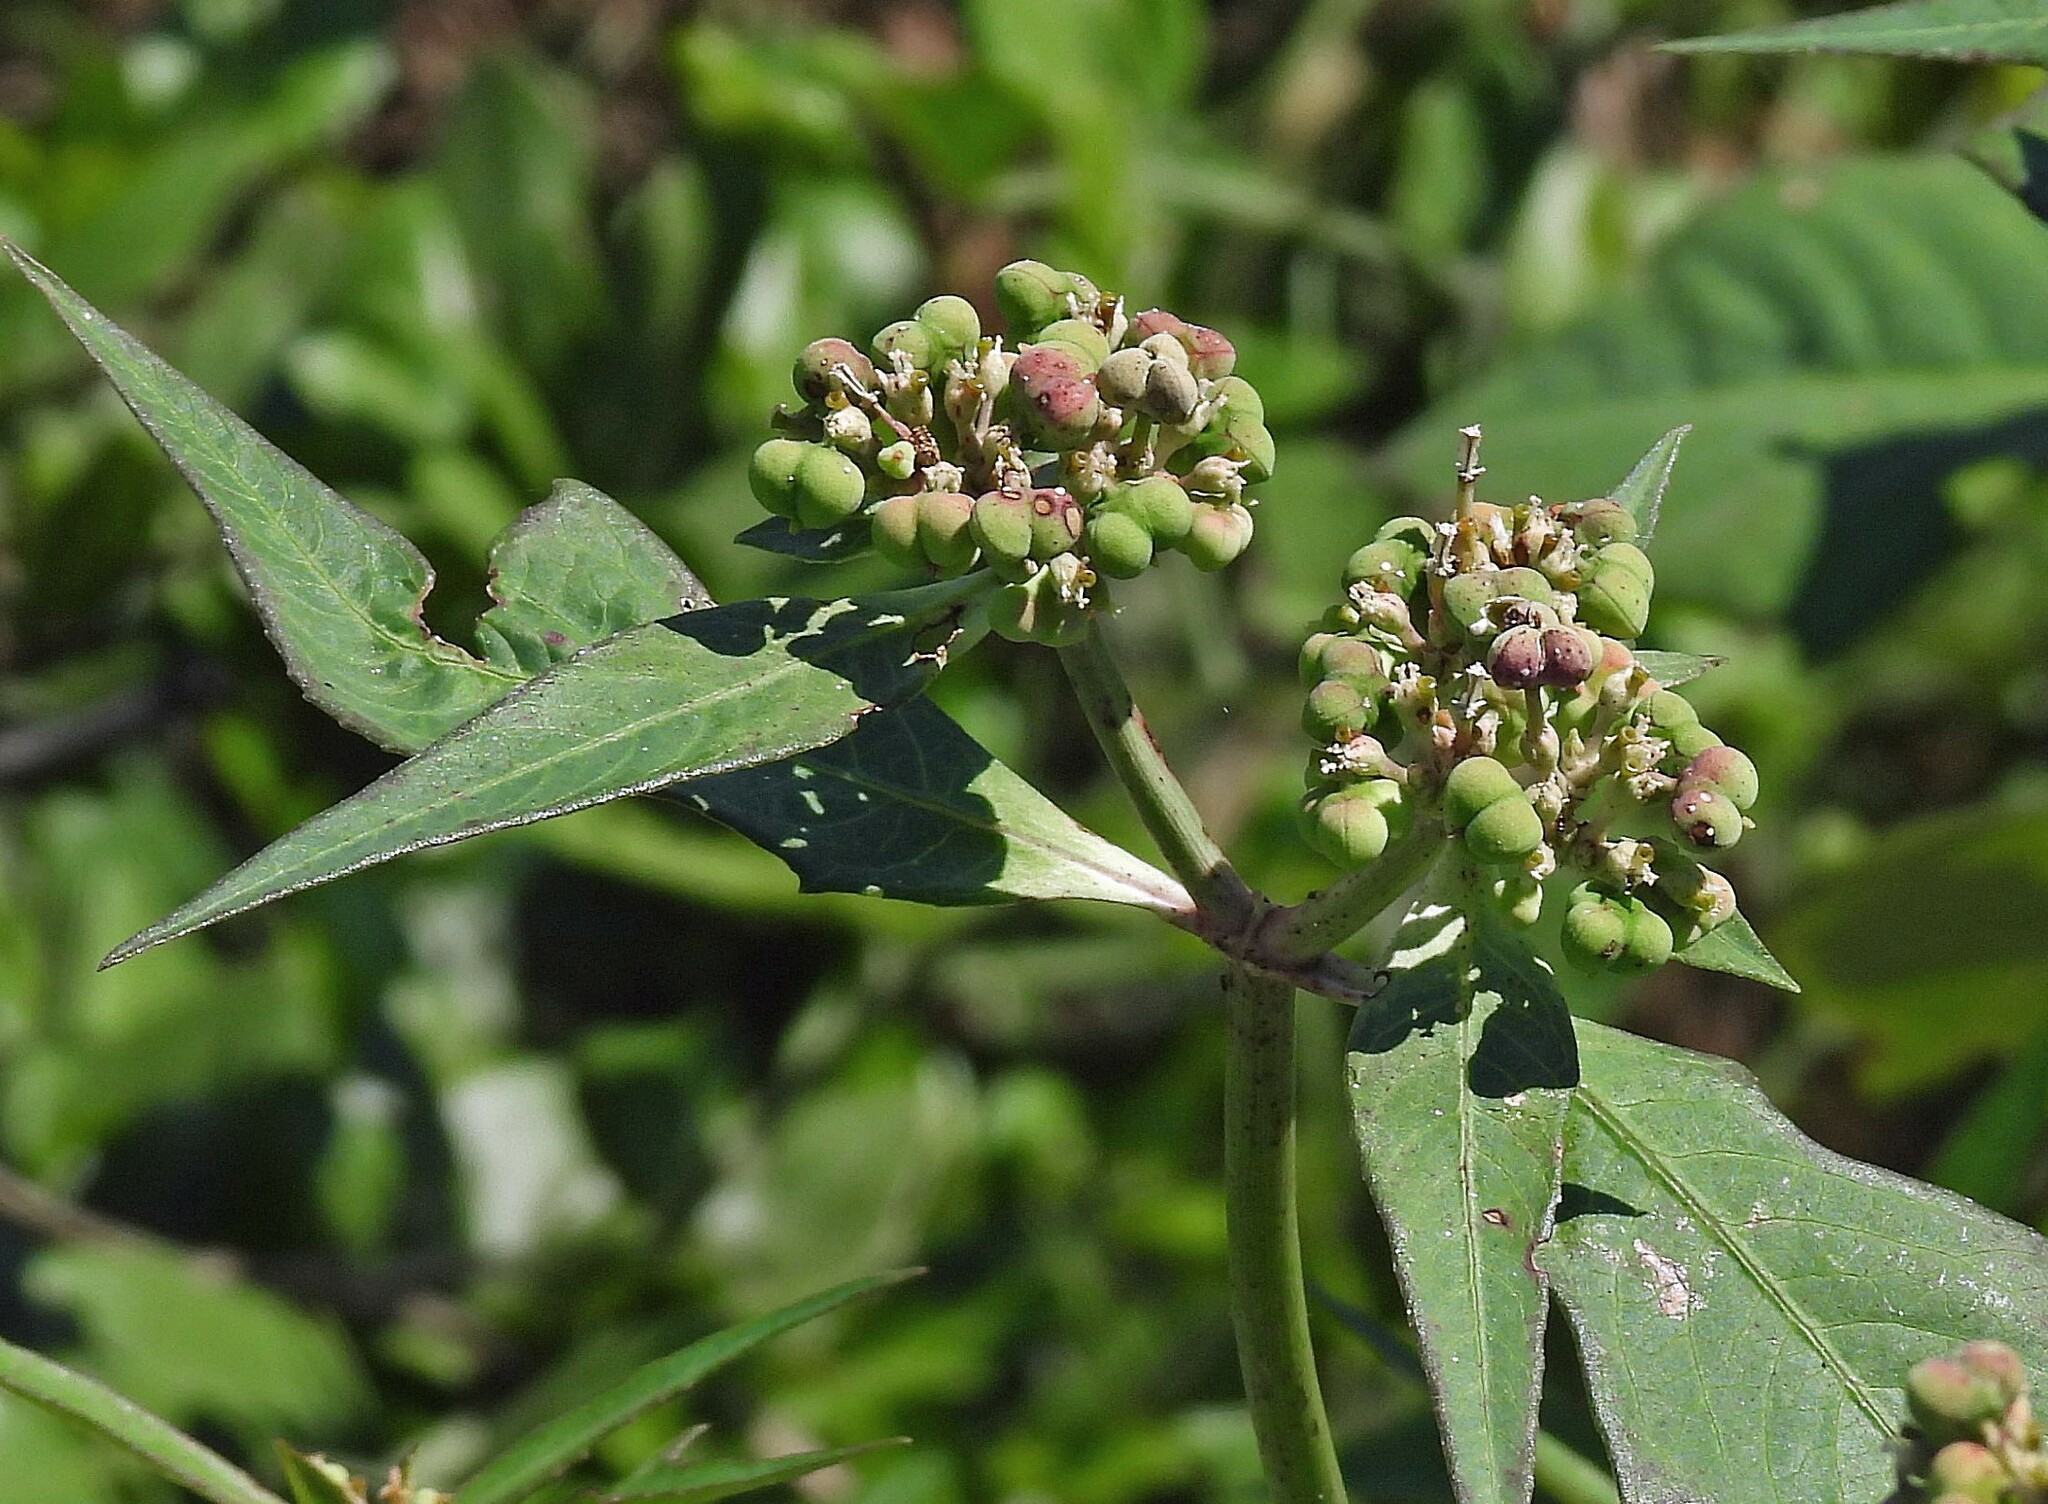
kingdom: Plantae
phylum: Tracheophyta
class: Magnoliopsida
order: Malpighiales
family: Euphorbiaceae
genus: Euphorbia
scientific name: Euphorbia heterophylla
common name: Mexican fireplant
